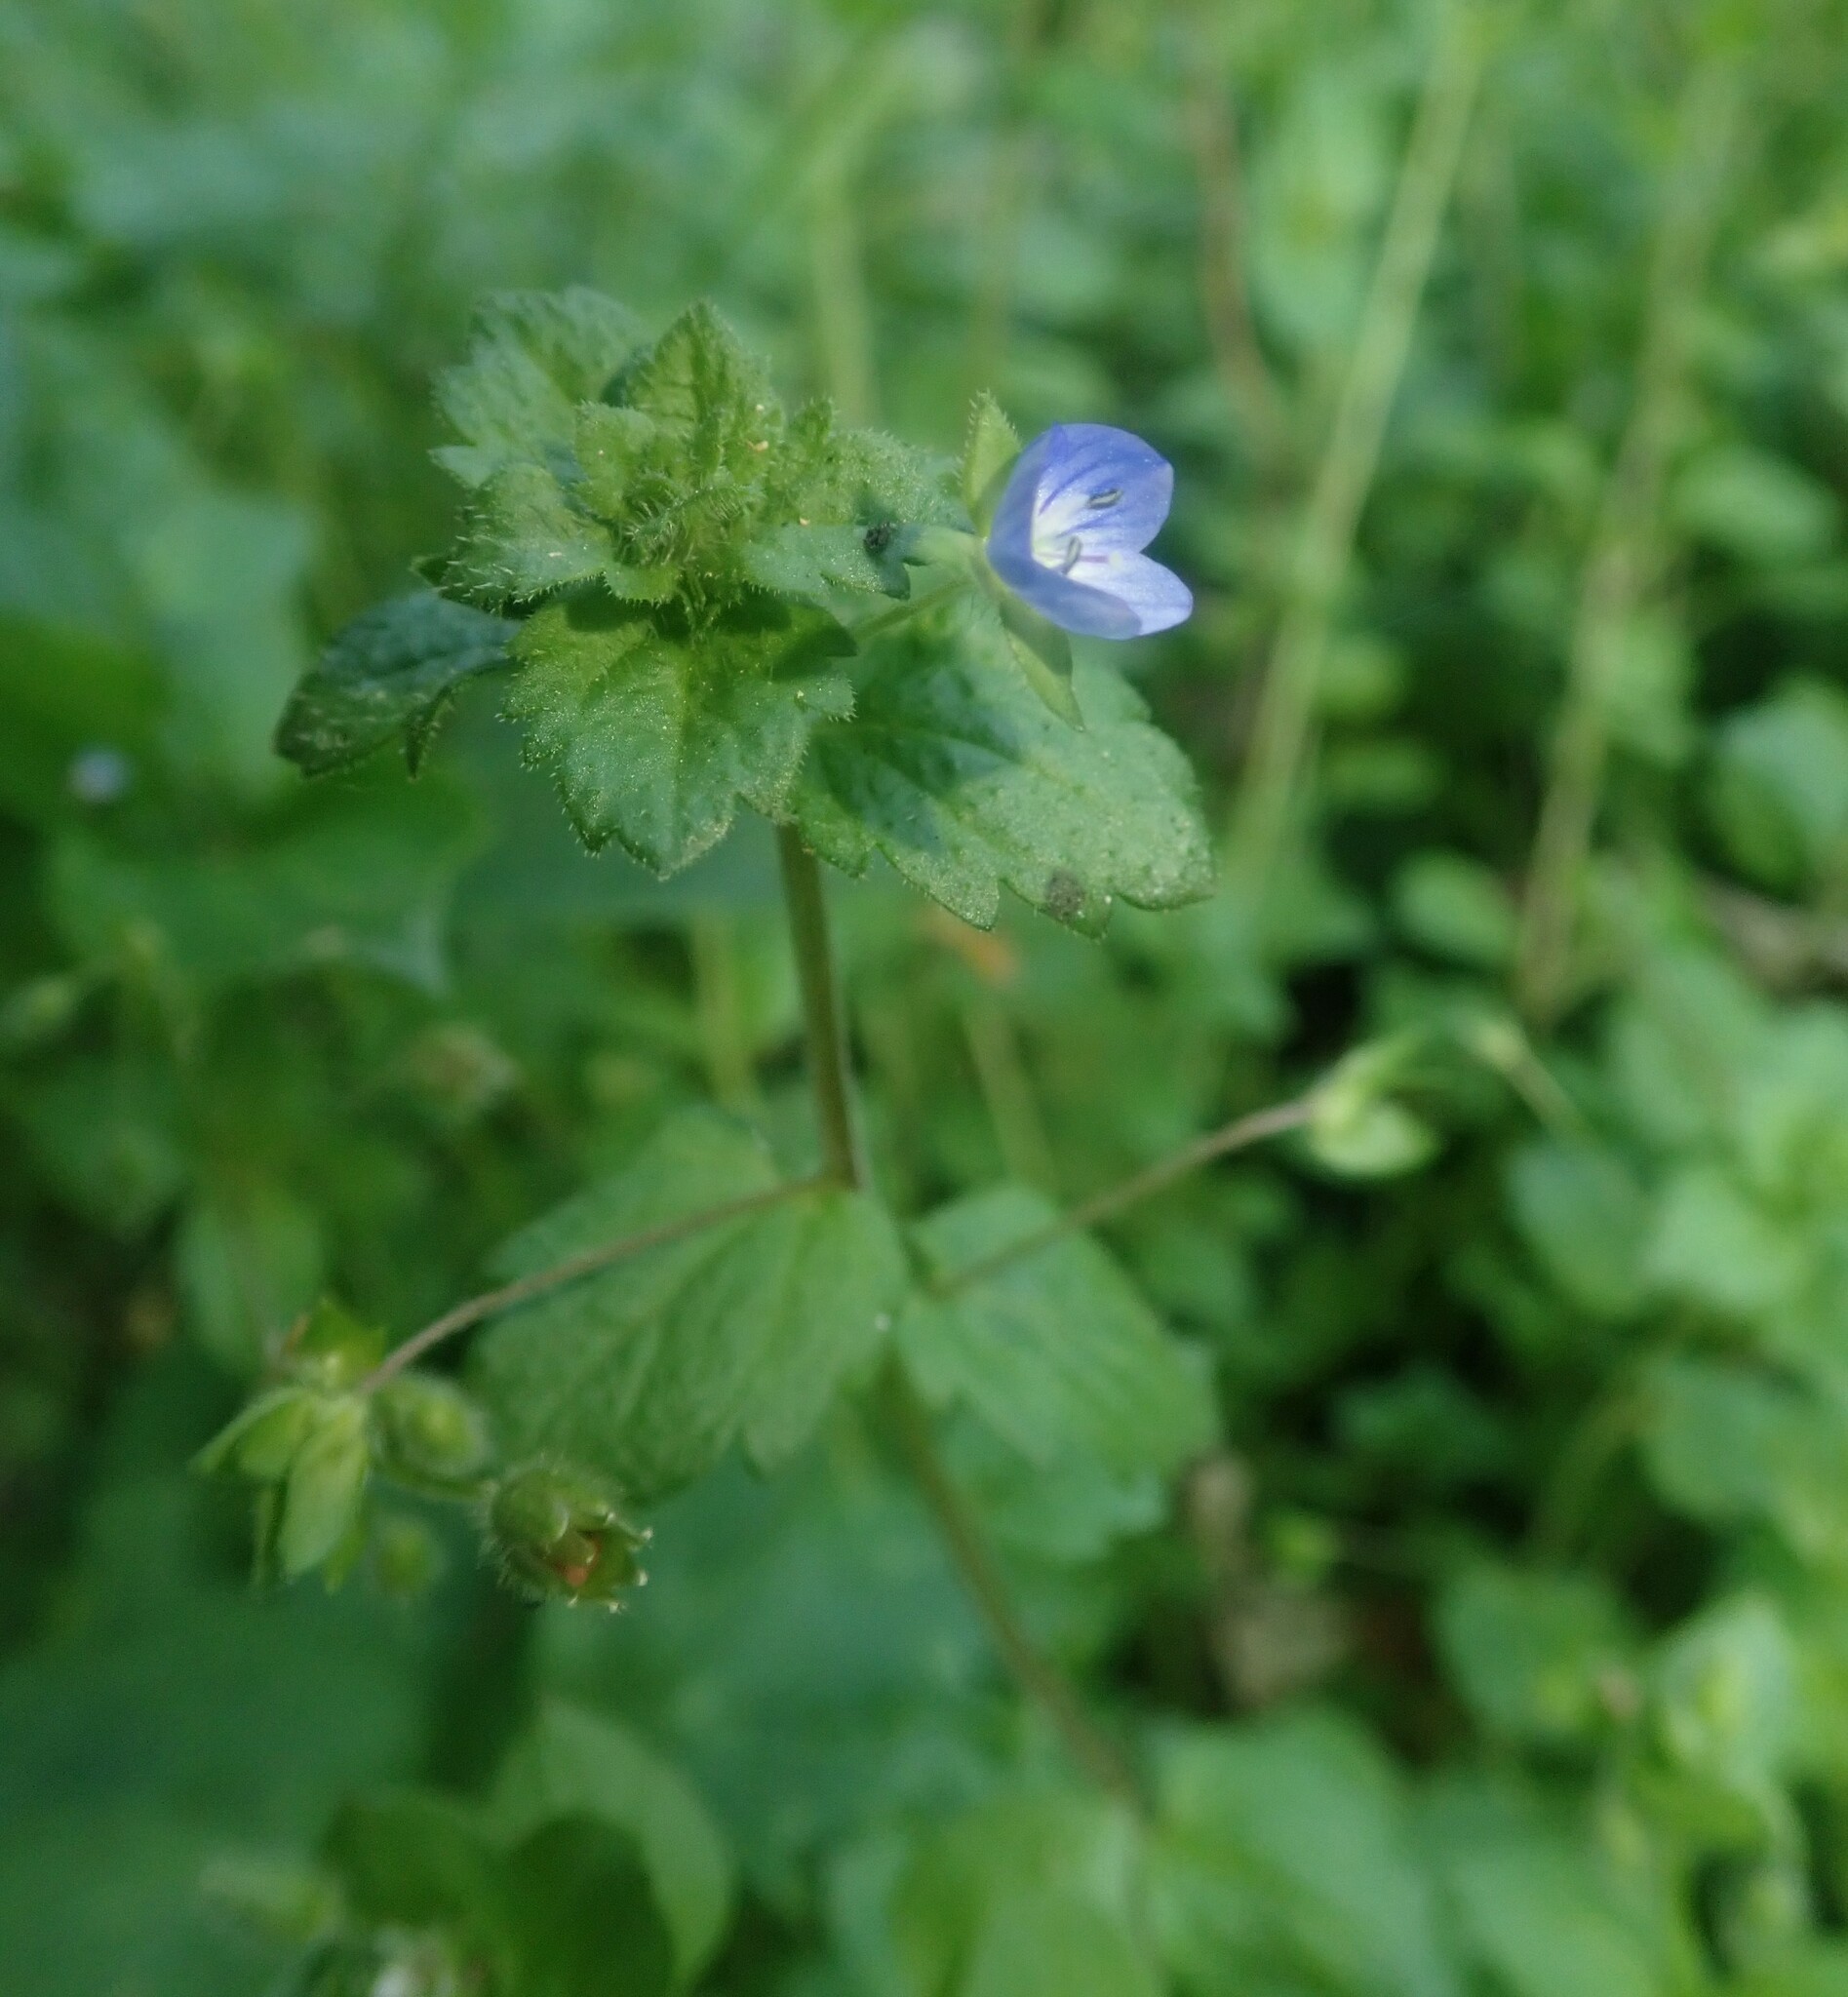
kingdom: Plantae
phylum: Tracheophyta
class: Magnoliopsida
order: Lamiales
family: Plantaginaceae
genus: Veronica
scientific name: Veronica persica
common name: Common field-speedwell
